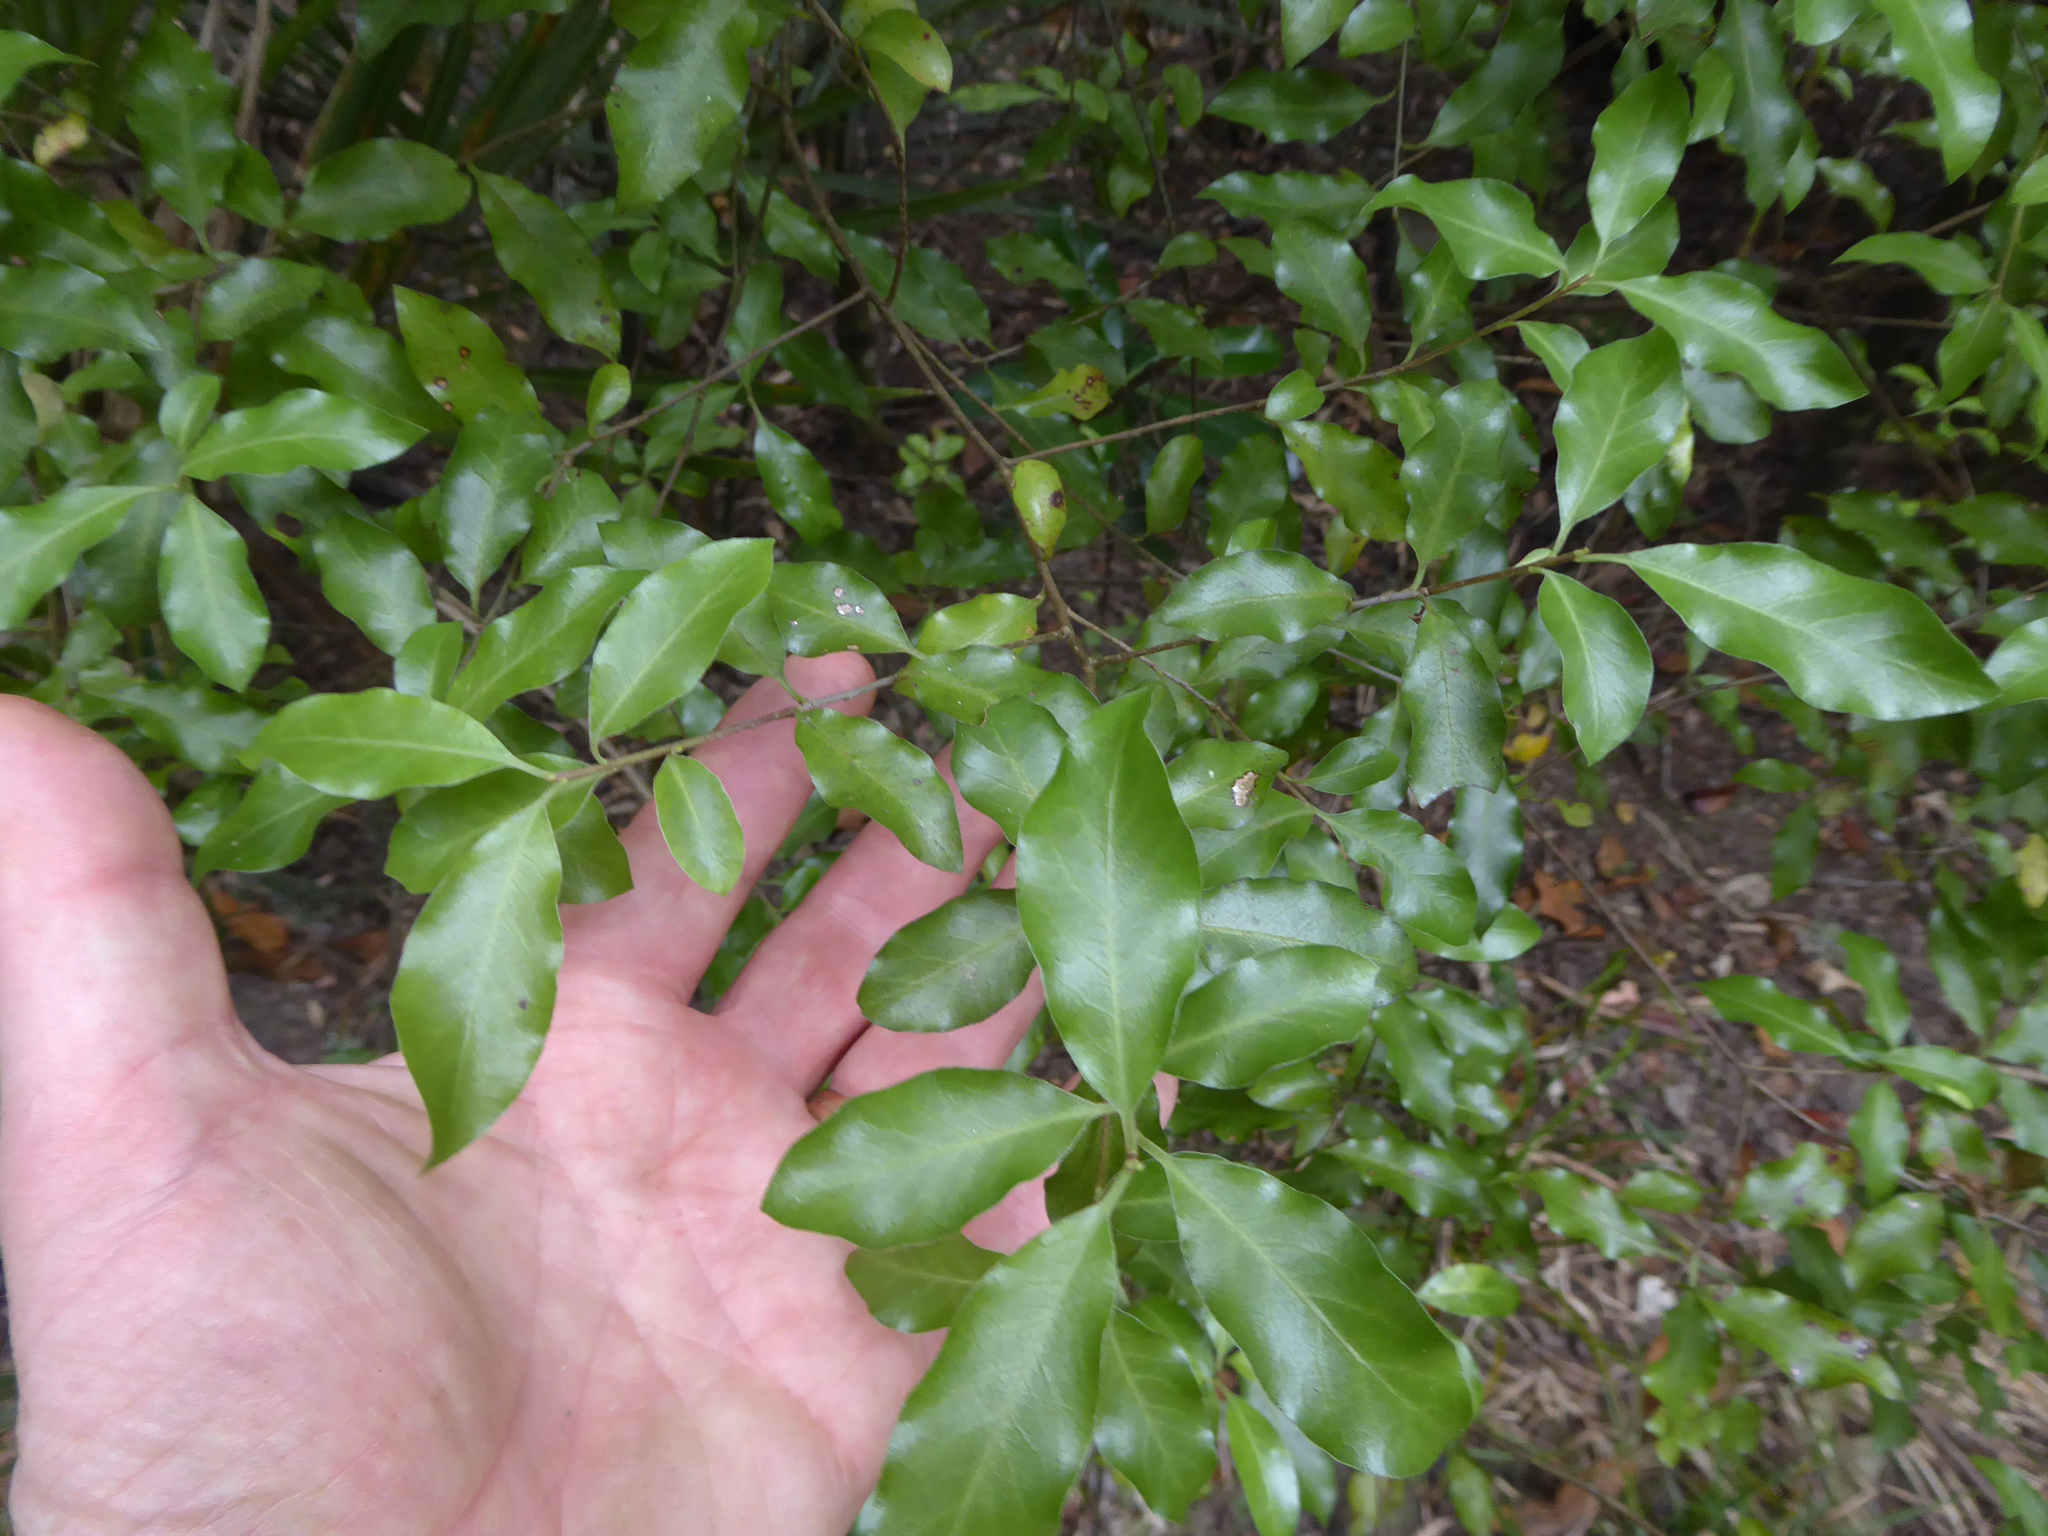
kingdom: Plantae
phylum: Tracheophyta
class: Magnoliopsida
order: Apiales
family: Pittosporaceae
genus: Pittosporum
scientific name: Pittosporum tenuifolium
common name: Kohuhu
